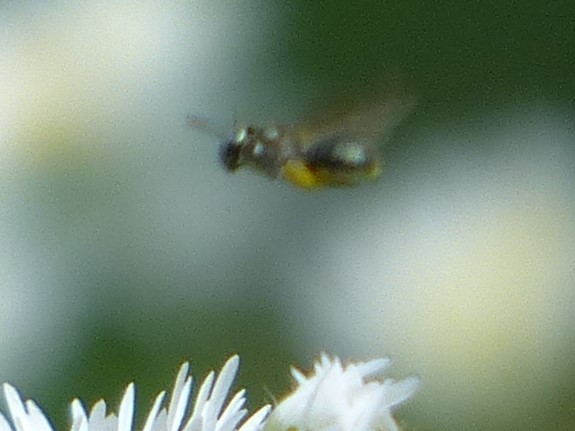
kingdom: Animalia
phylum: Arthropoda
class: Insecta
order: Hymenoptera
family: Apidae
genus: Zadontomerus
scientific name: Zadontomerus
